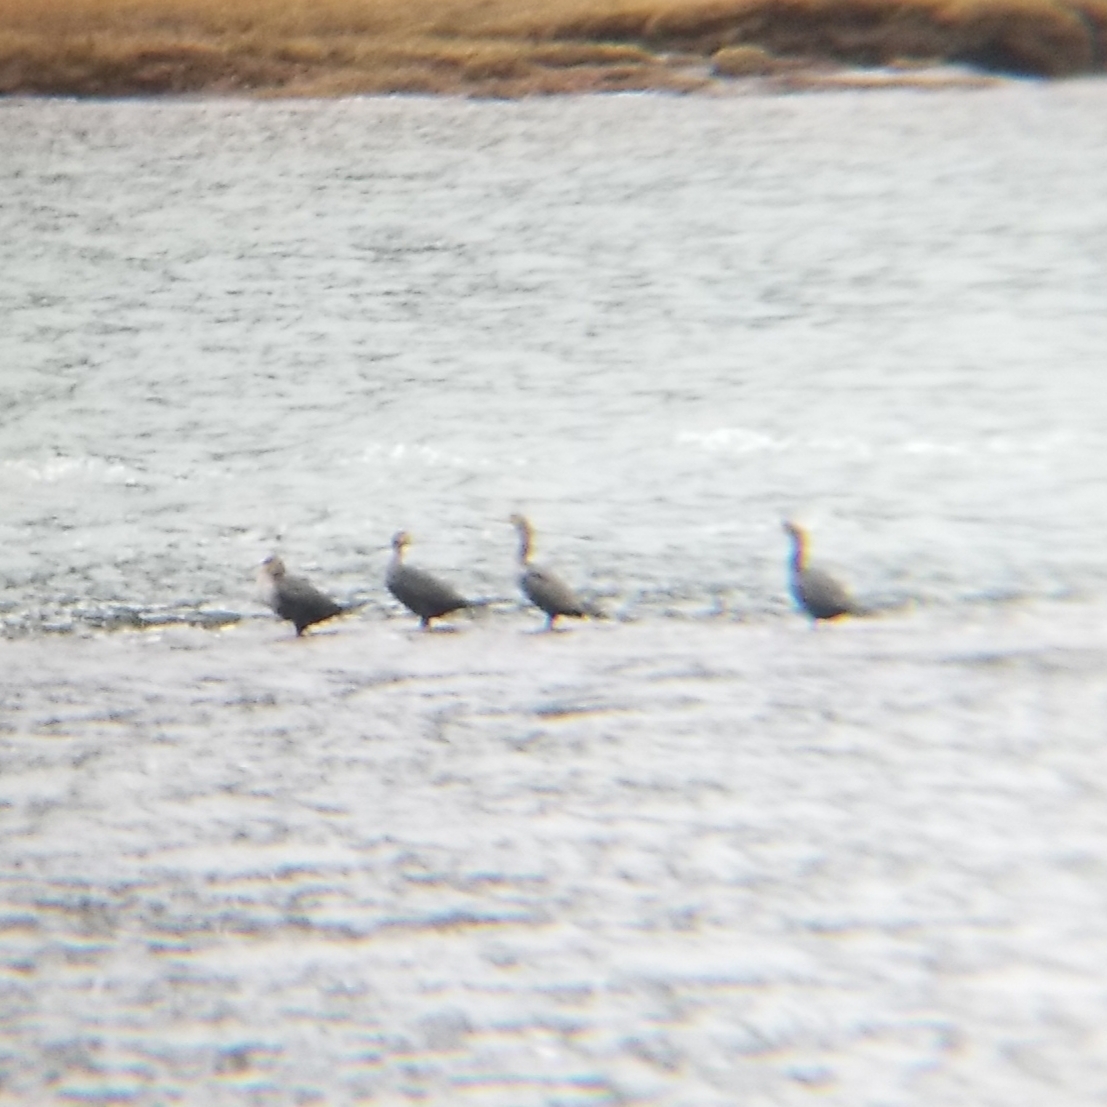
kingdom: Animalia
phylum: Chordata
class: Aves
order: Suliformes
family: Phalacrocoracidae
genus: Phalacrocorax
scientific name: Phalacrocorax auritus
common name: Double-crested cormorant
